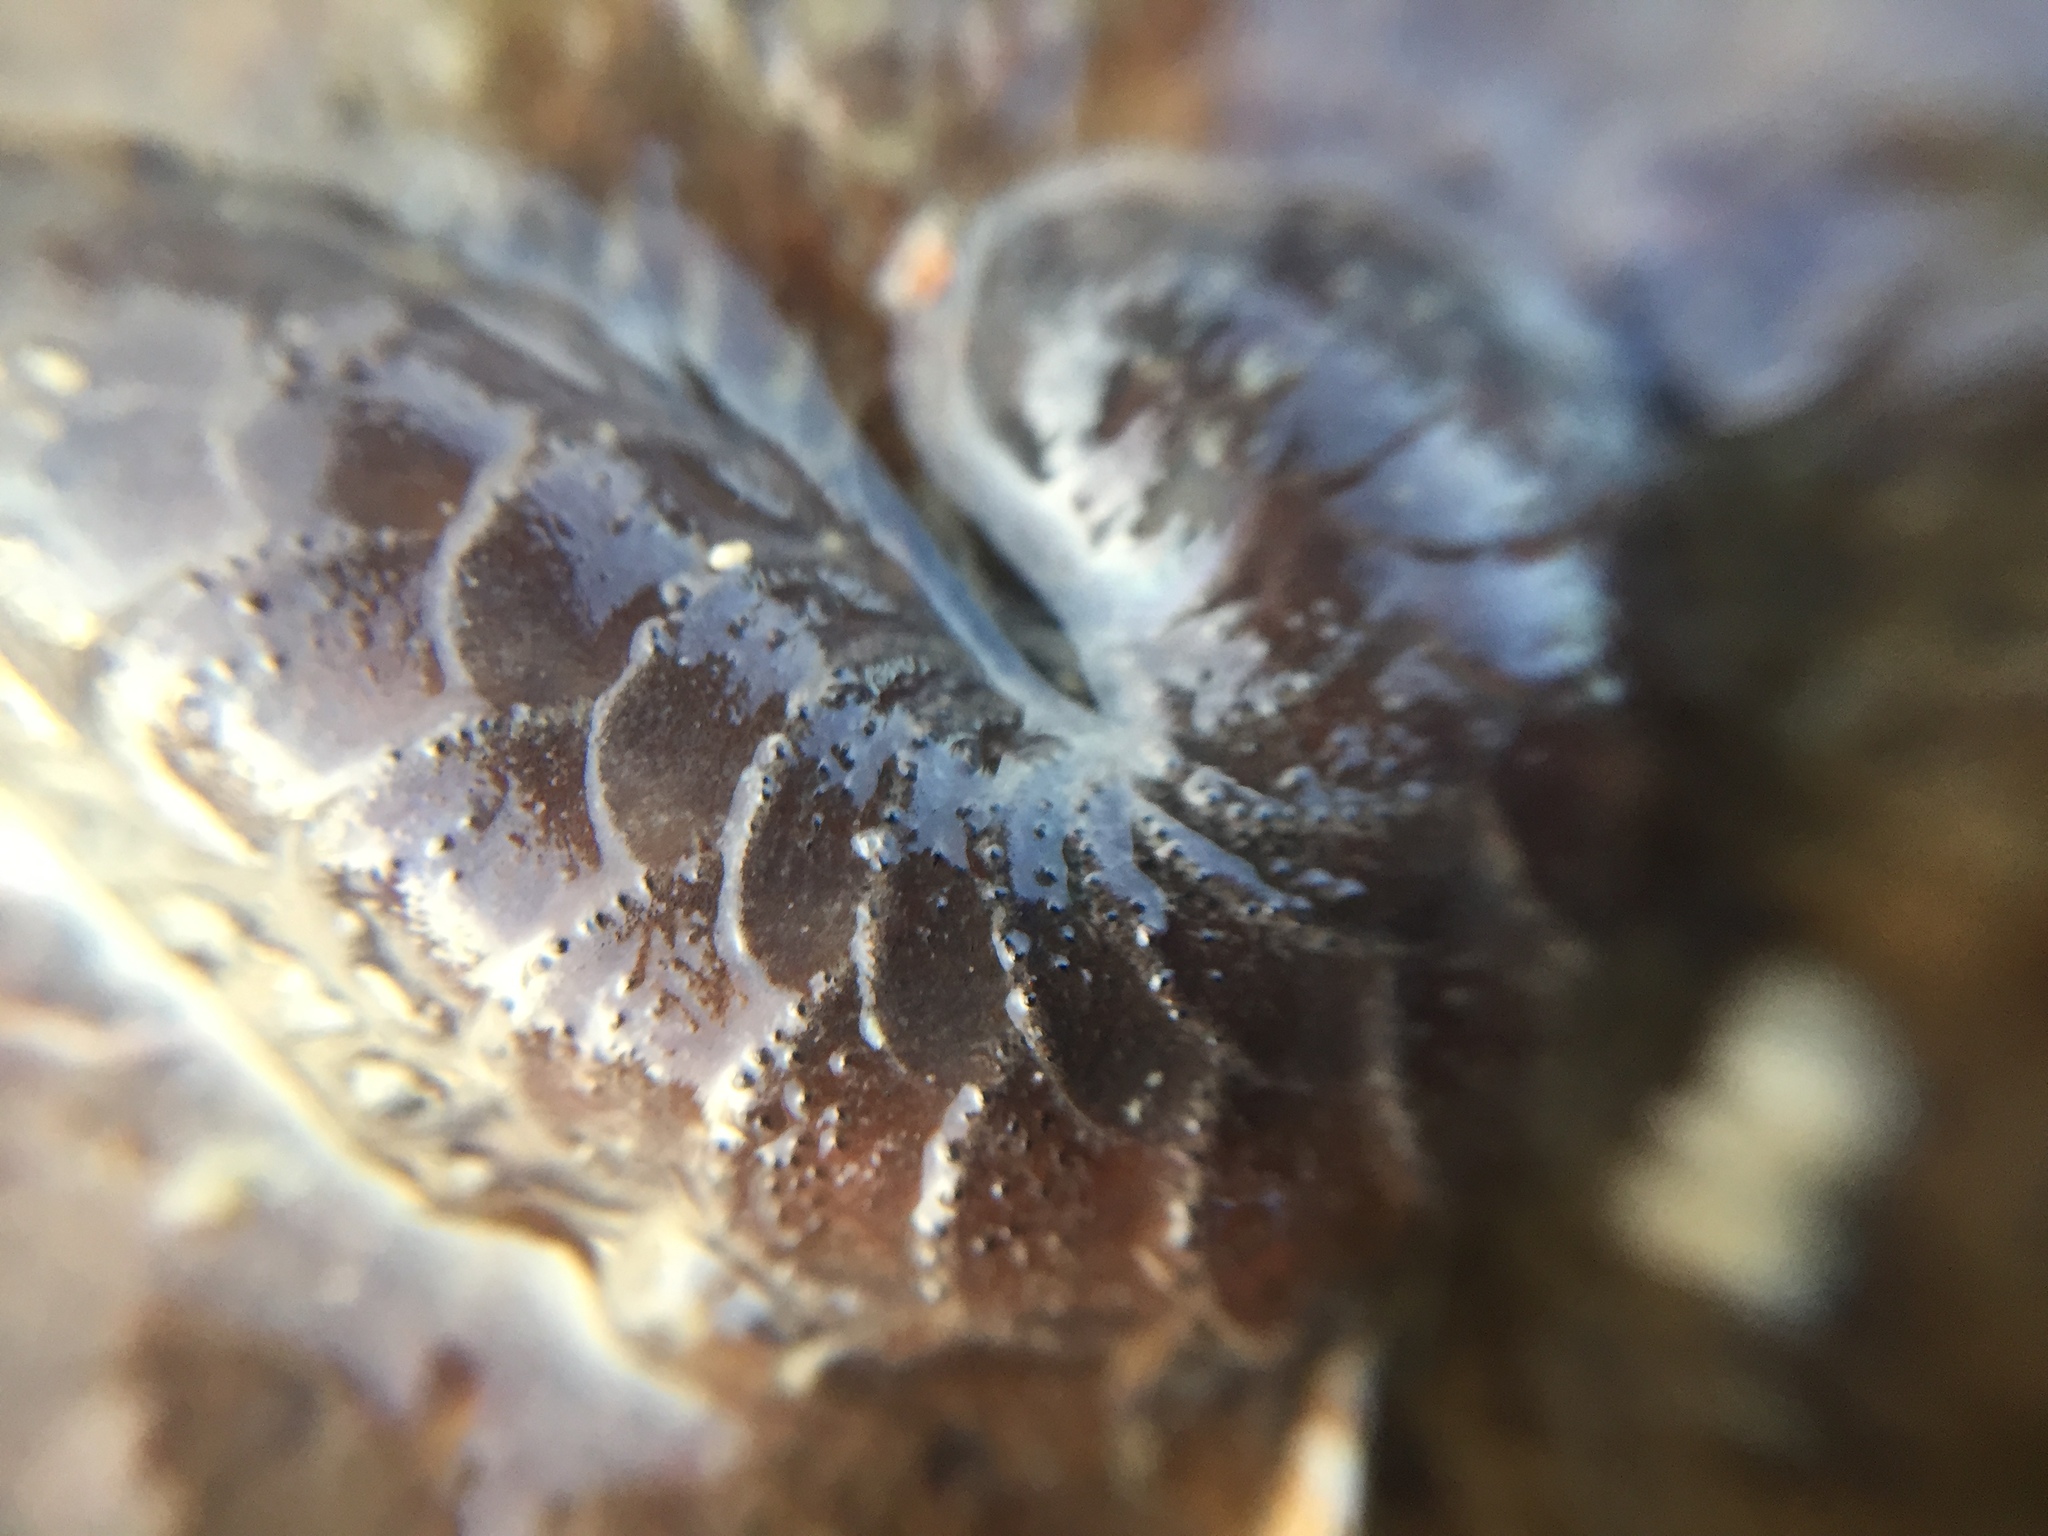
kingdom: Animalia
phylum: Annelida
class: Polychaeta
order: Phyllodocida
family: Polynoidae
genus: Paralepidonotus
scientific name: Paralepidonotus ampulliferus
